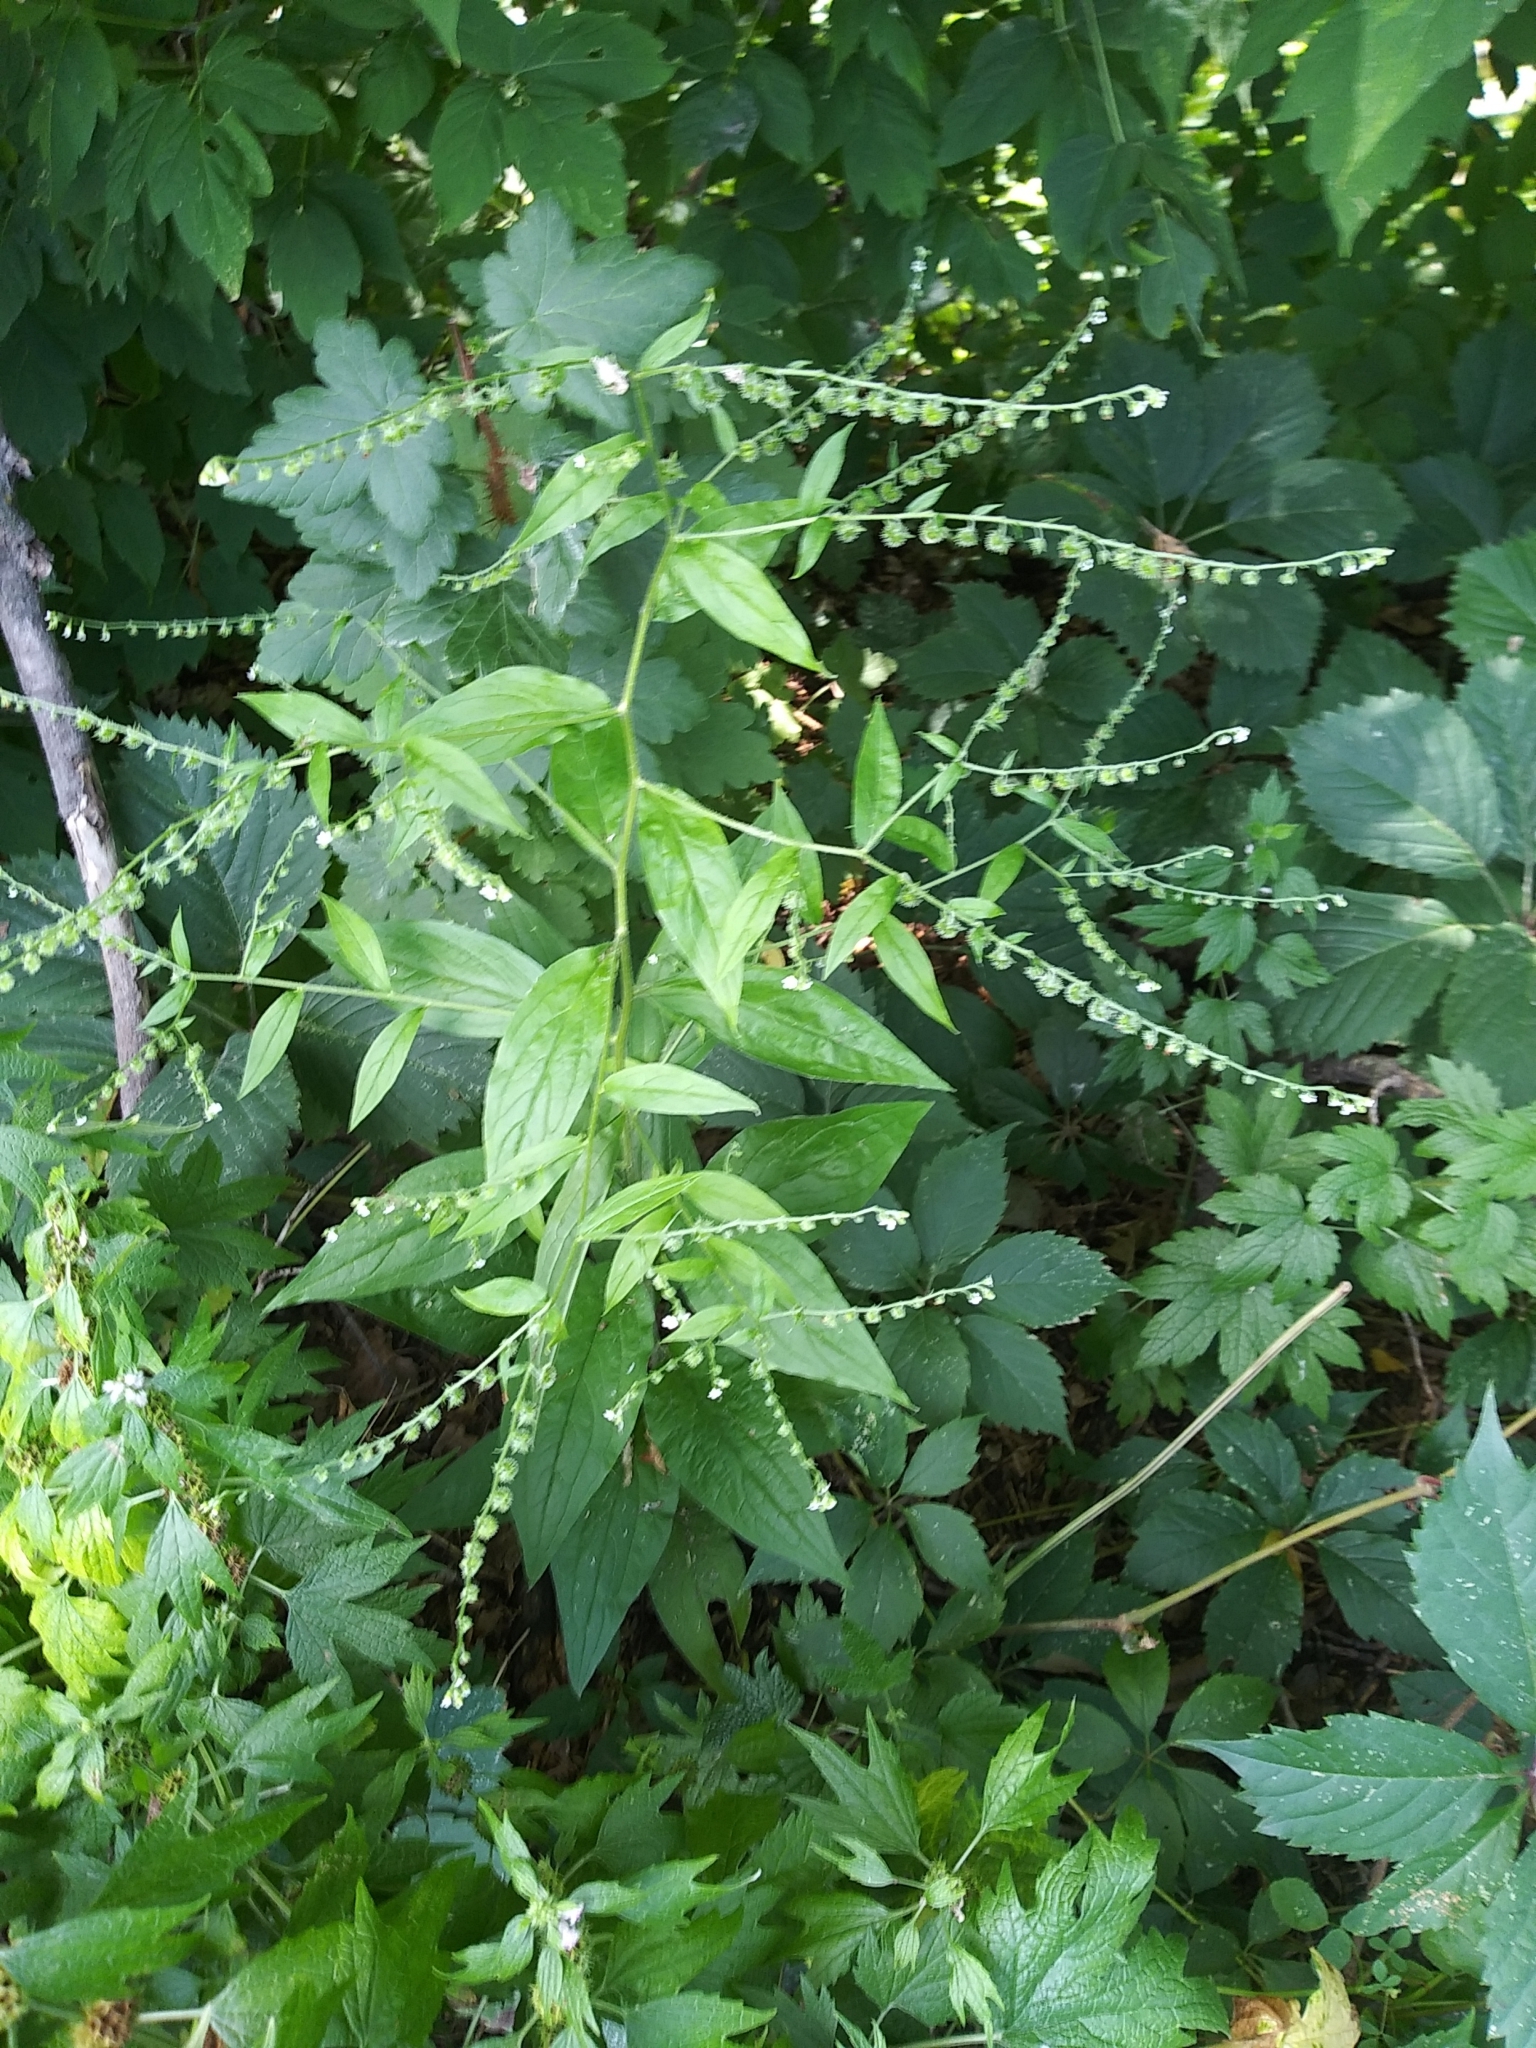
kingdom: Plantae
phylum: Tracheophyta
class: Magnoliopsida
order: Boraginales
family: Boraginaceae
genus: Hackelia
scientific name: Hackelia virginiana
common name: Beggar's-lice
